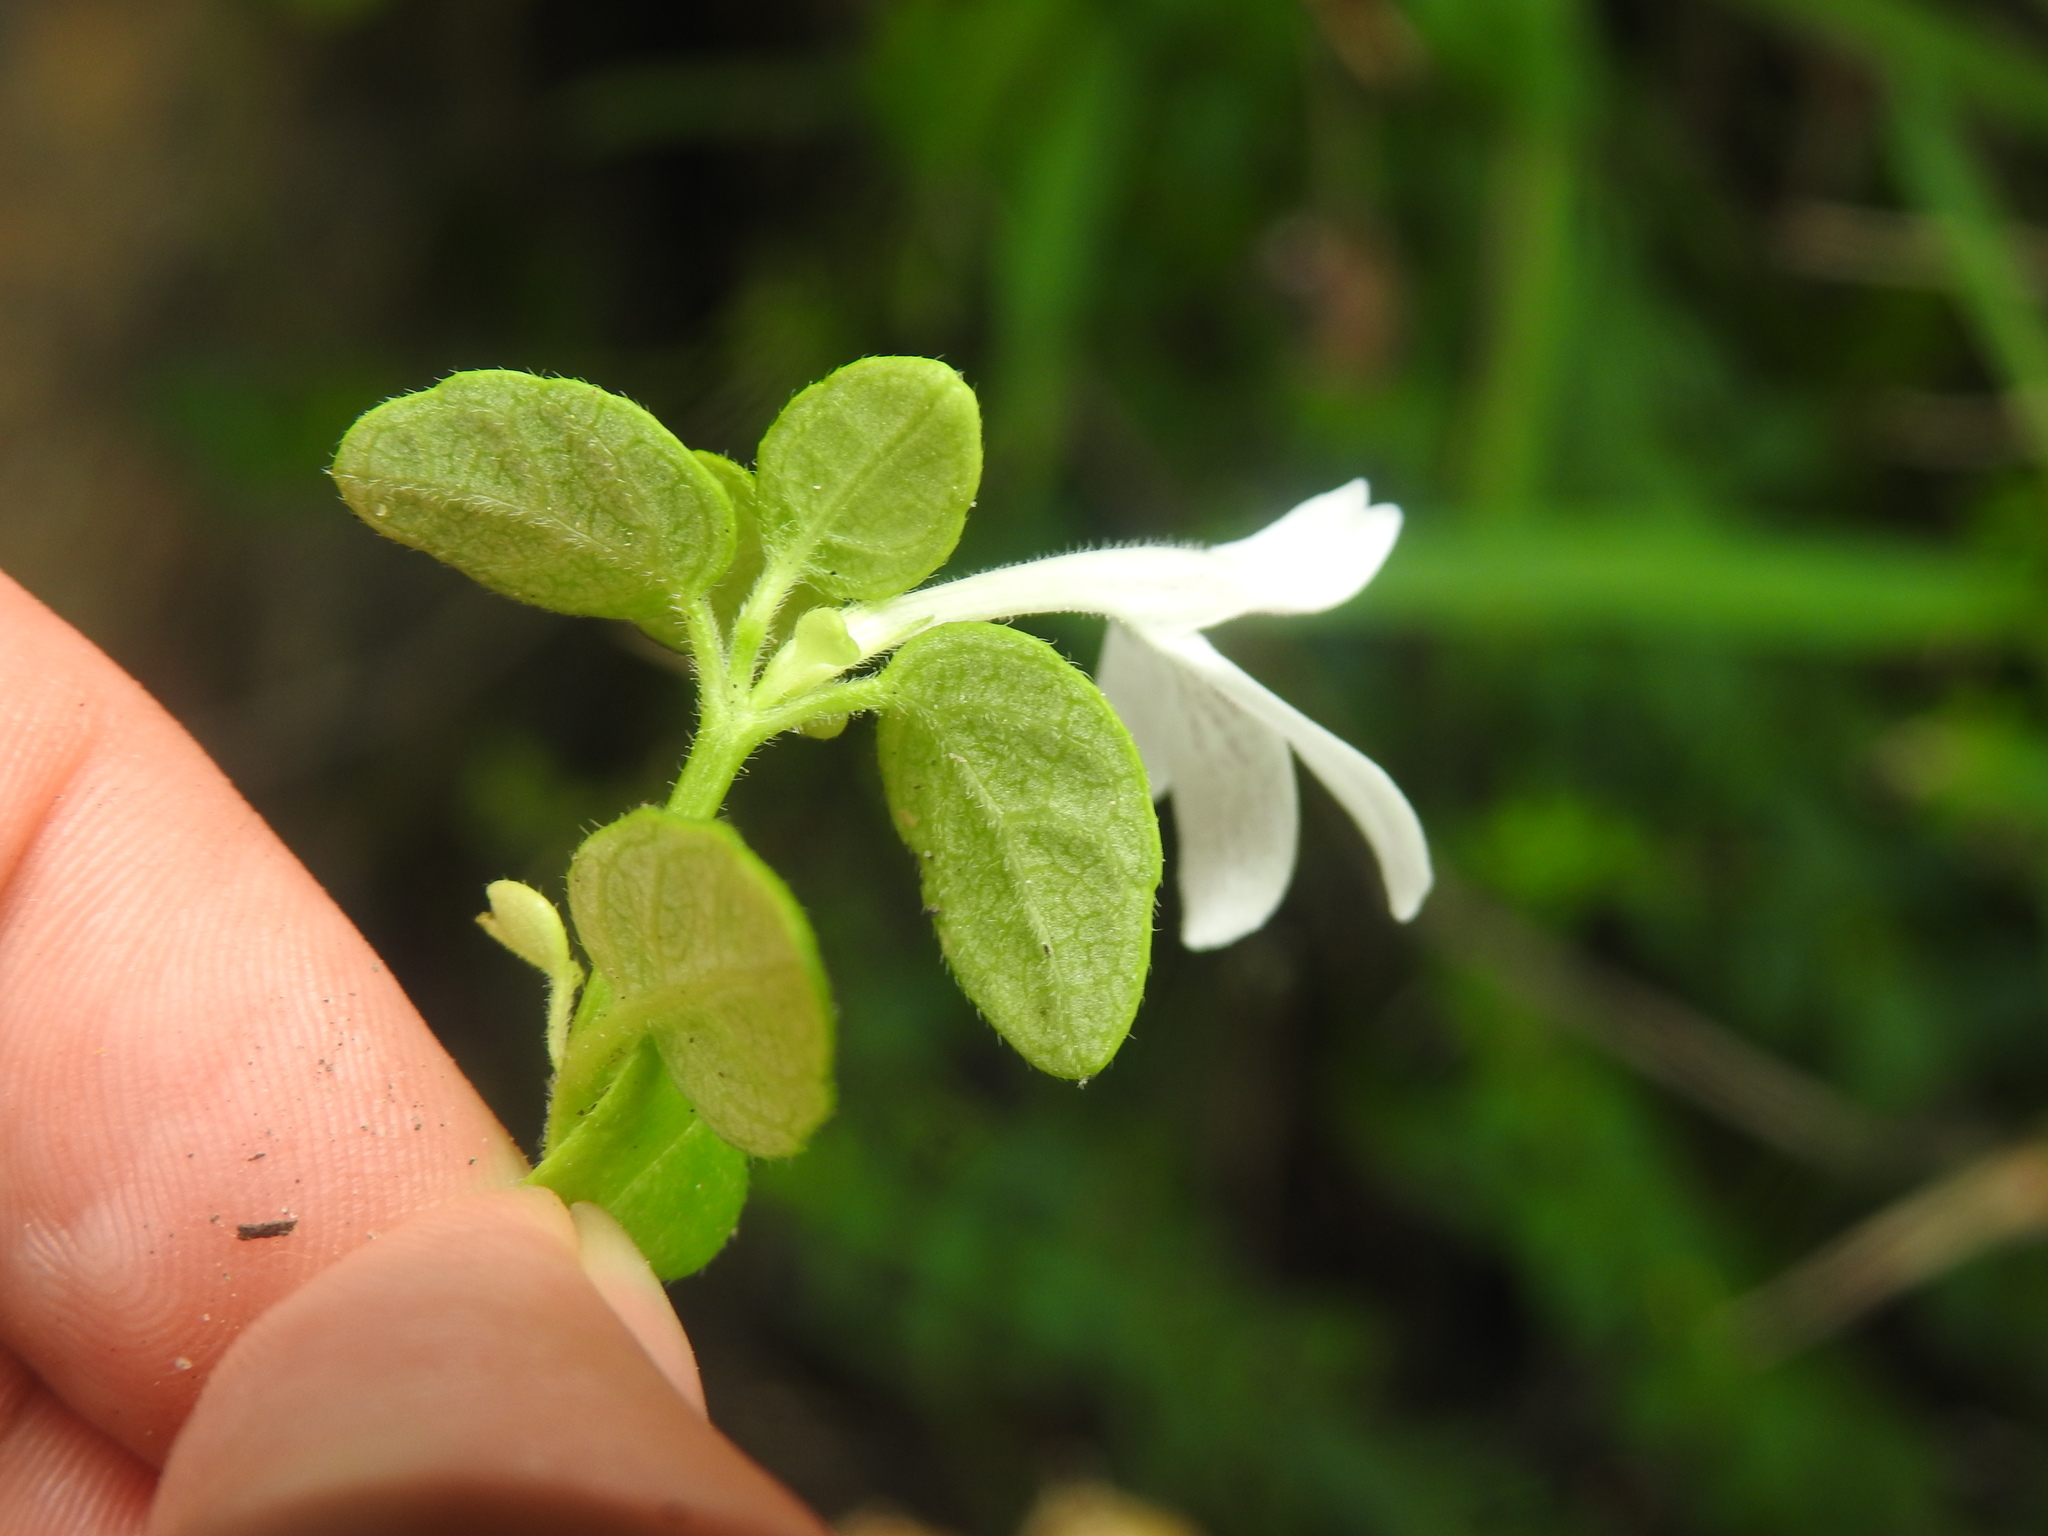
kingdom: Plantae
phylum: Tracheophyta
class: Magnoliopsida
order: Lamiales
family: Acanthaceae
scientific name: Acanthaceae
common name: Acanthaceae
